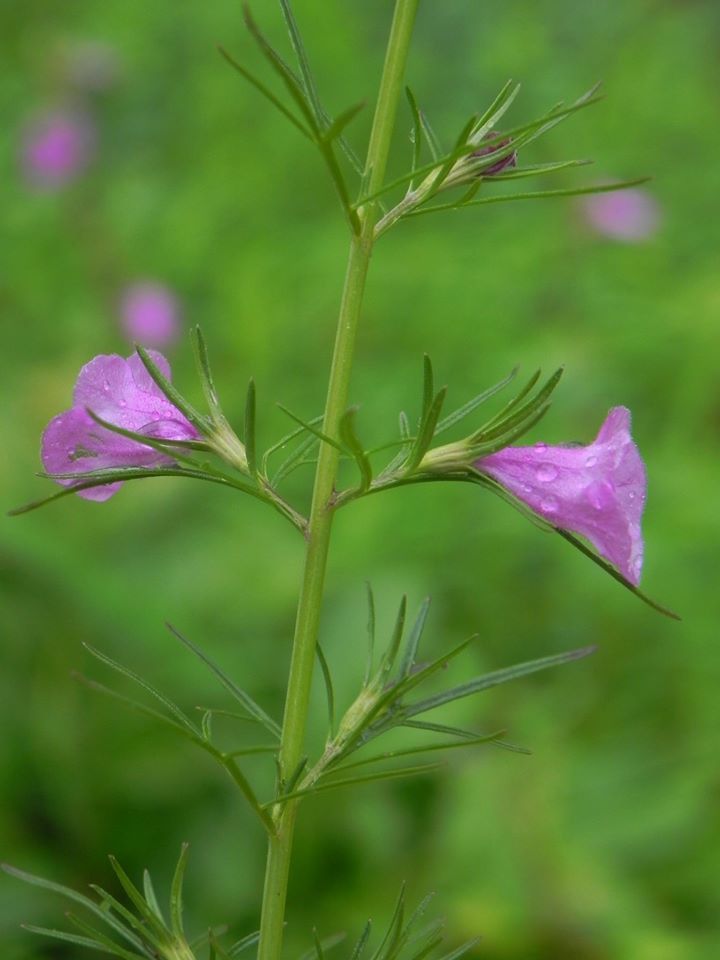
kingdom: Plantae
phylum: Tracheophyta
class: Magnoliopsida
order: Lamiales
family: Orobanchaceae
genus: Parasopubia
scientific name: Parasopubia delphiniifolia
